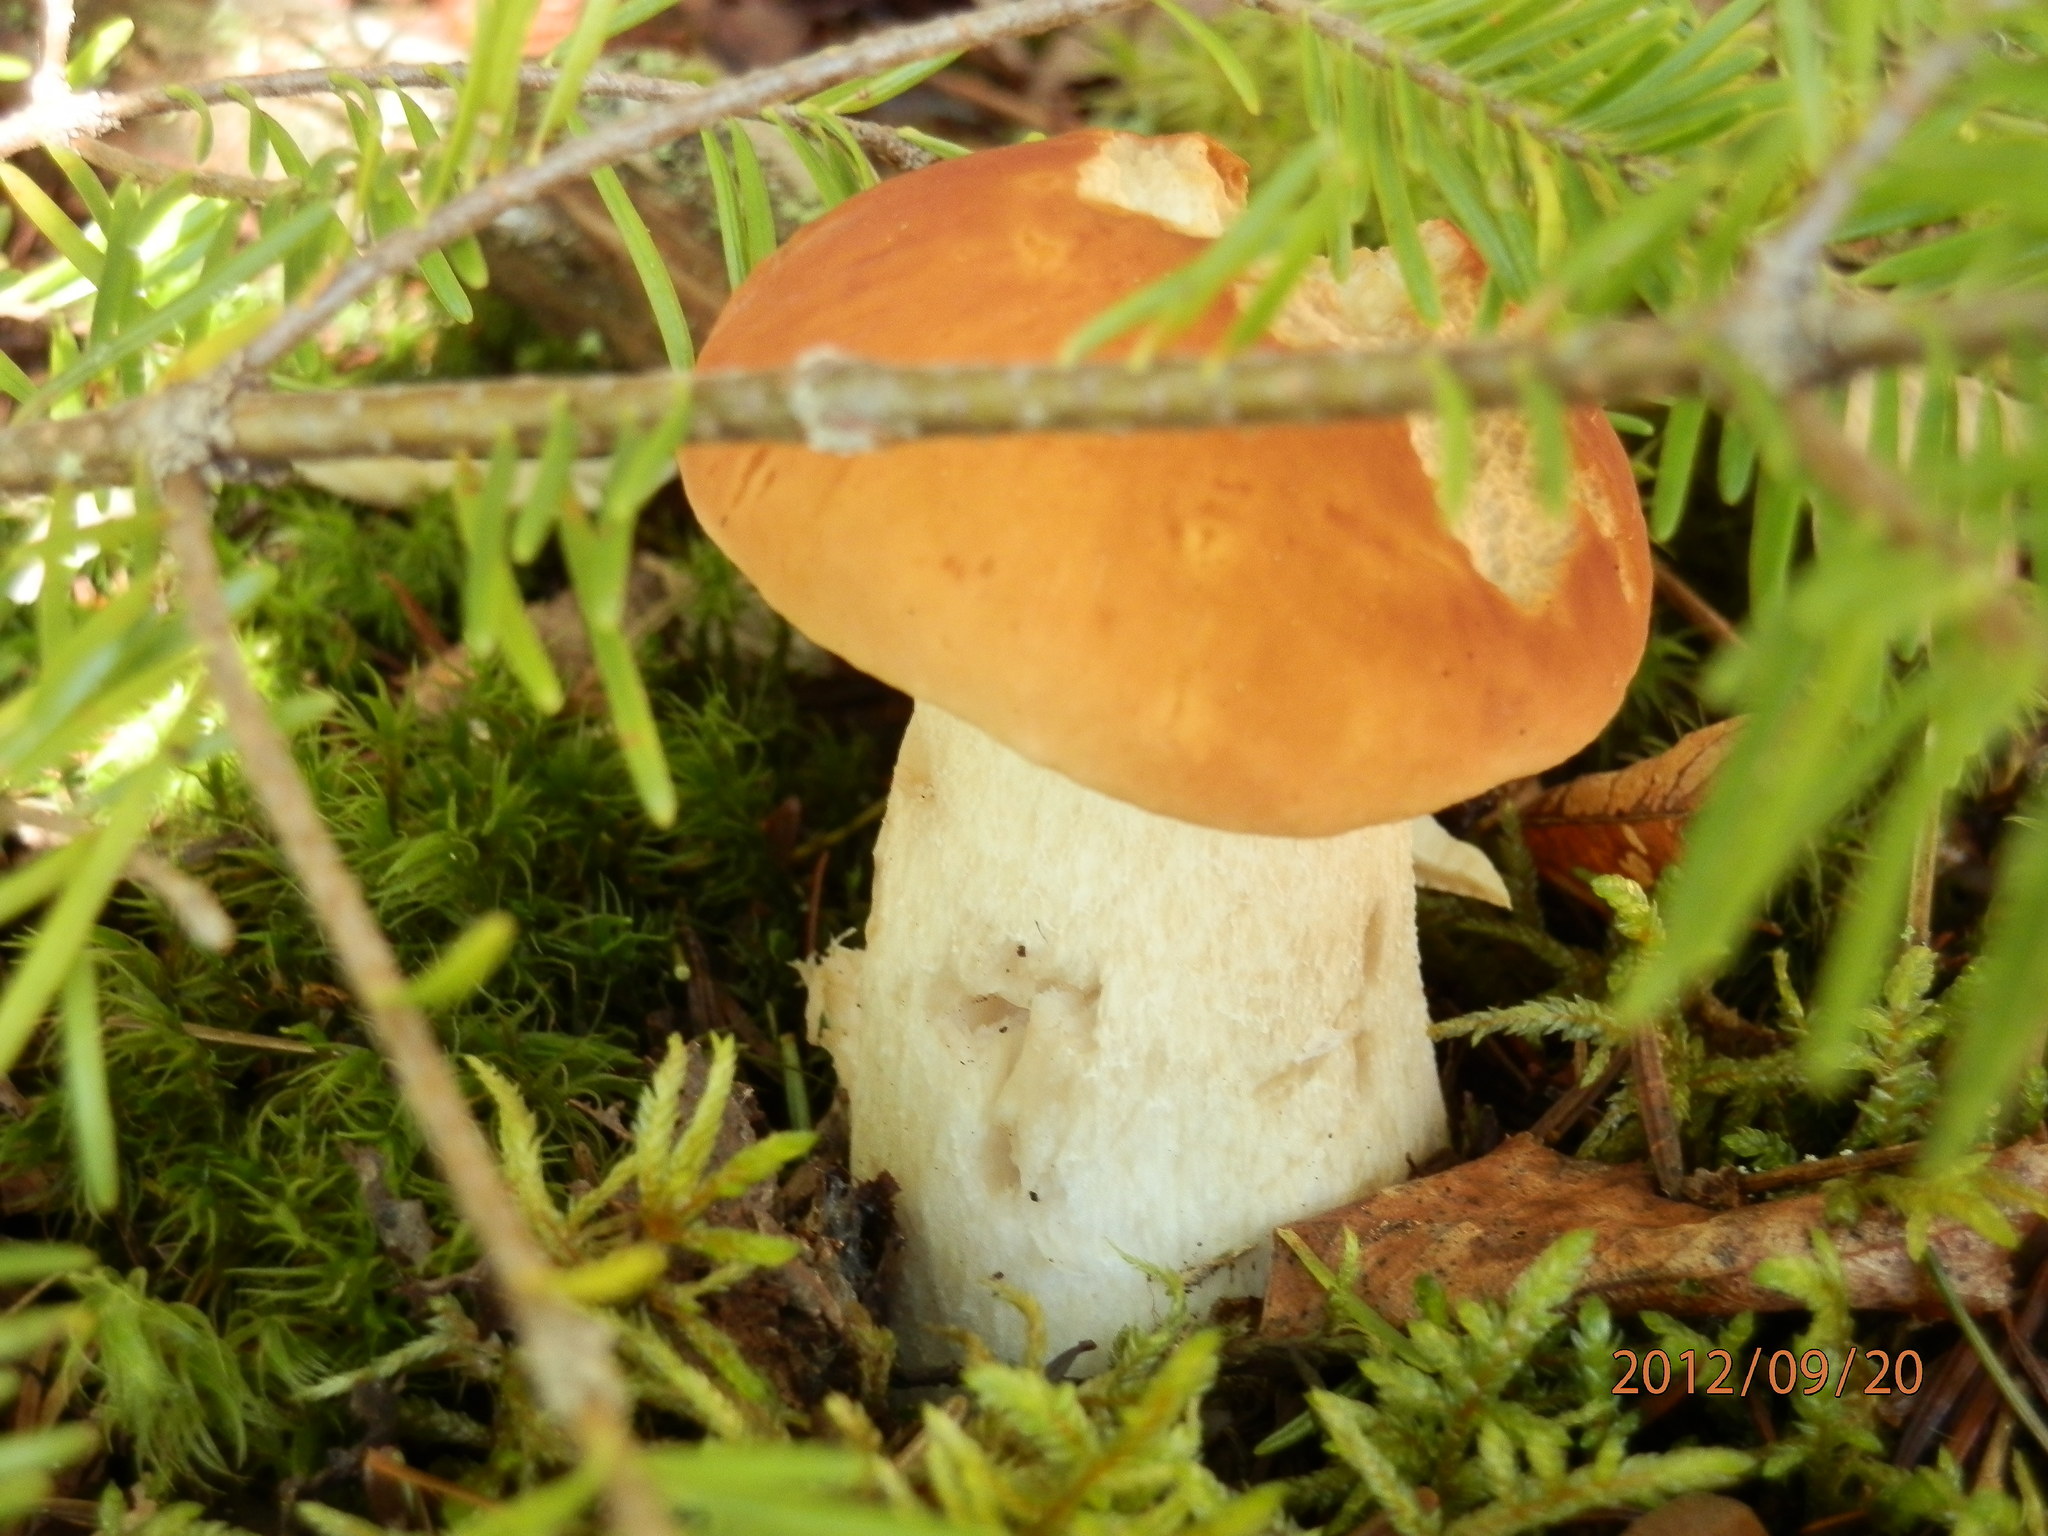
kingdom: Fungi
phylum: Basidiomycota
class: Agaricomycetes
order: Boletales
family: Boletaceae
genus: Boletus
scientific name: Boletus chippewaensis
